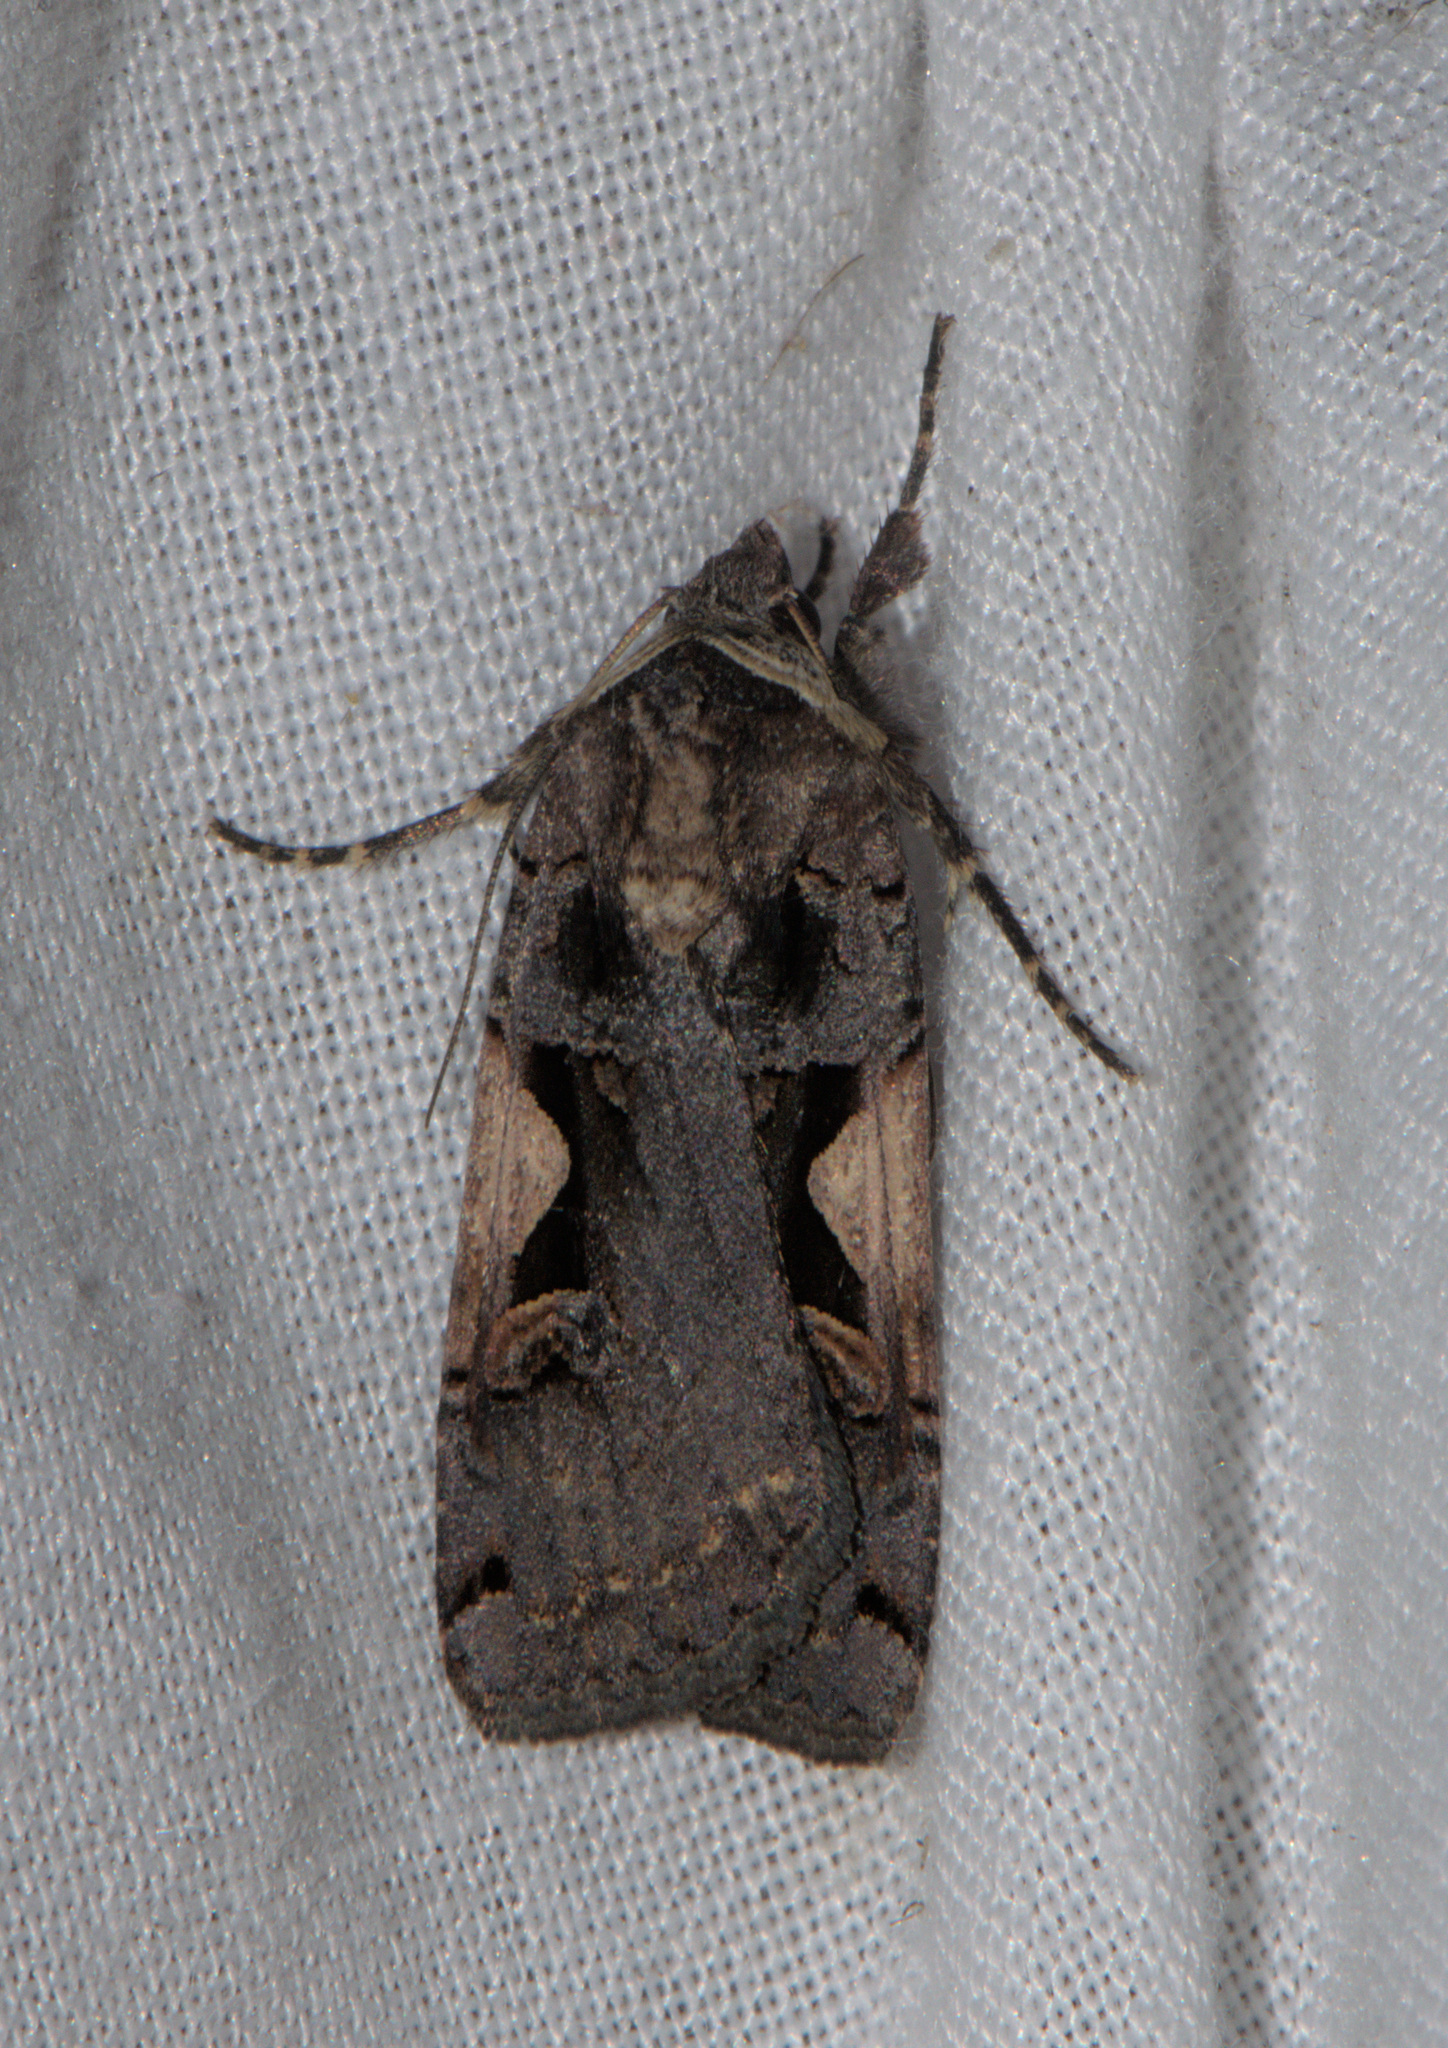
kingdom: Animalia
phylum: Arthropoda
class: Insecta
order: Lepidoptera
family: Noctuidae
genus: Xestia
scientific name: Xestia c-nigrum
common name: Setaceous hebrew character
